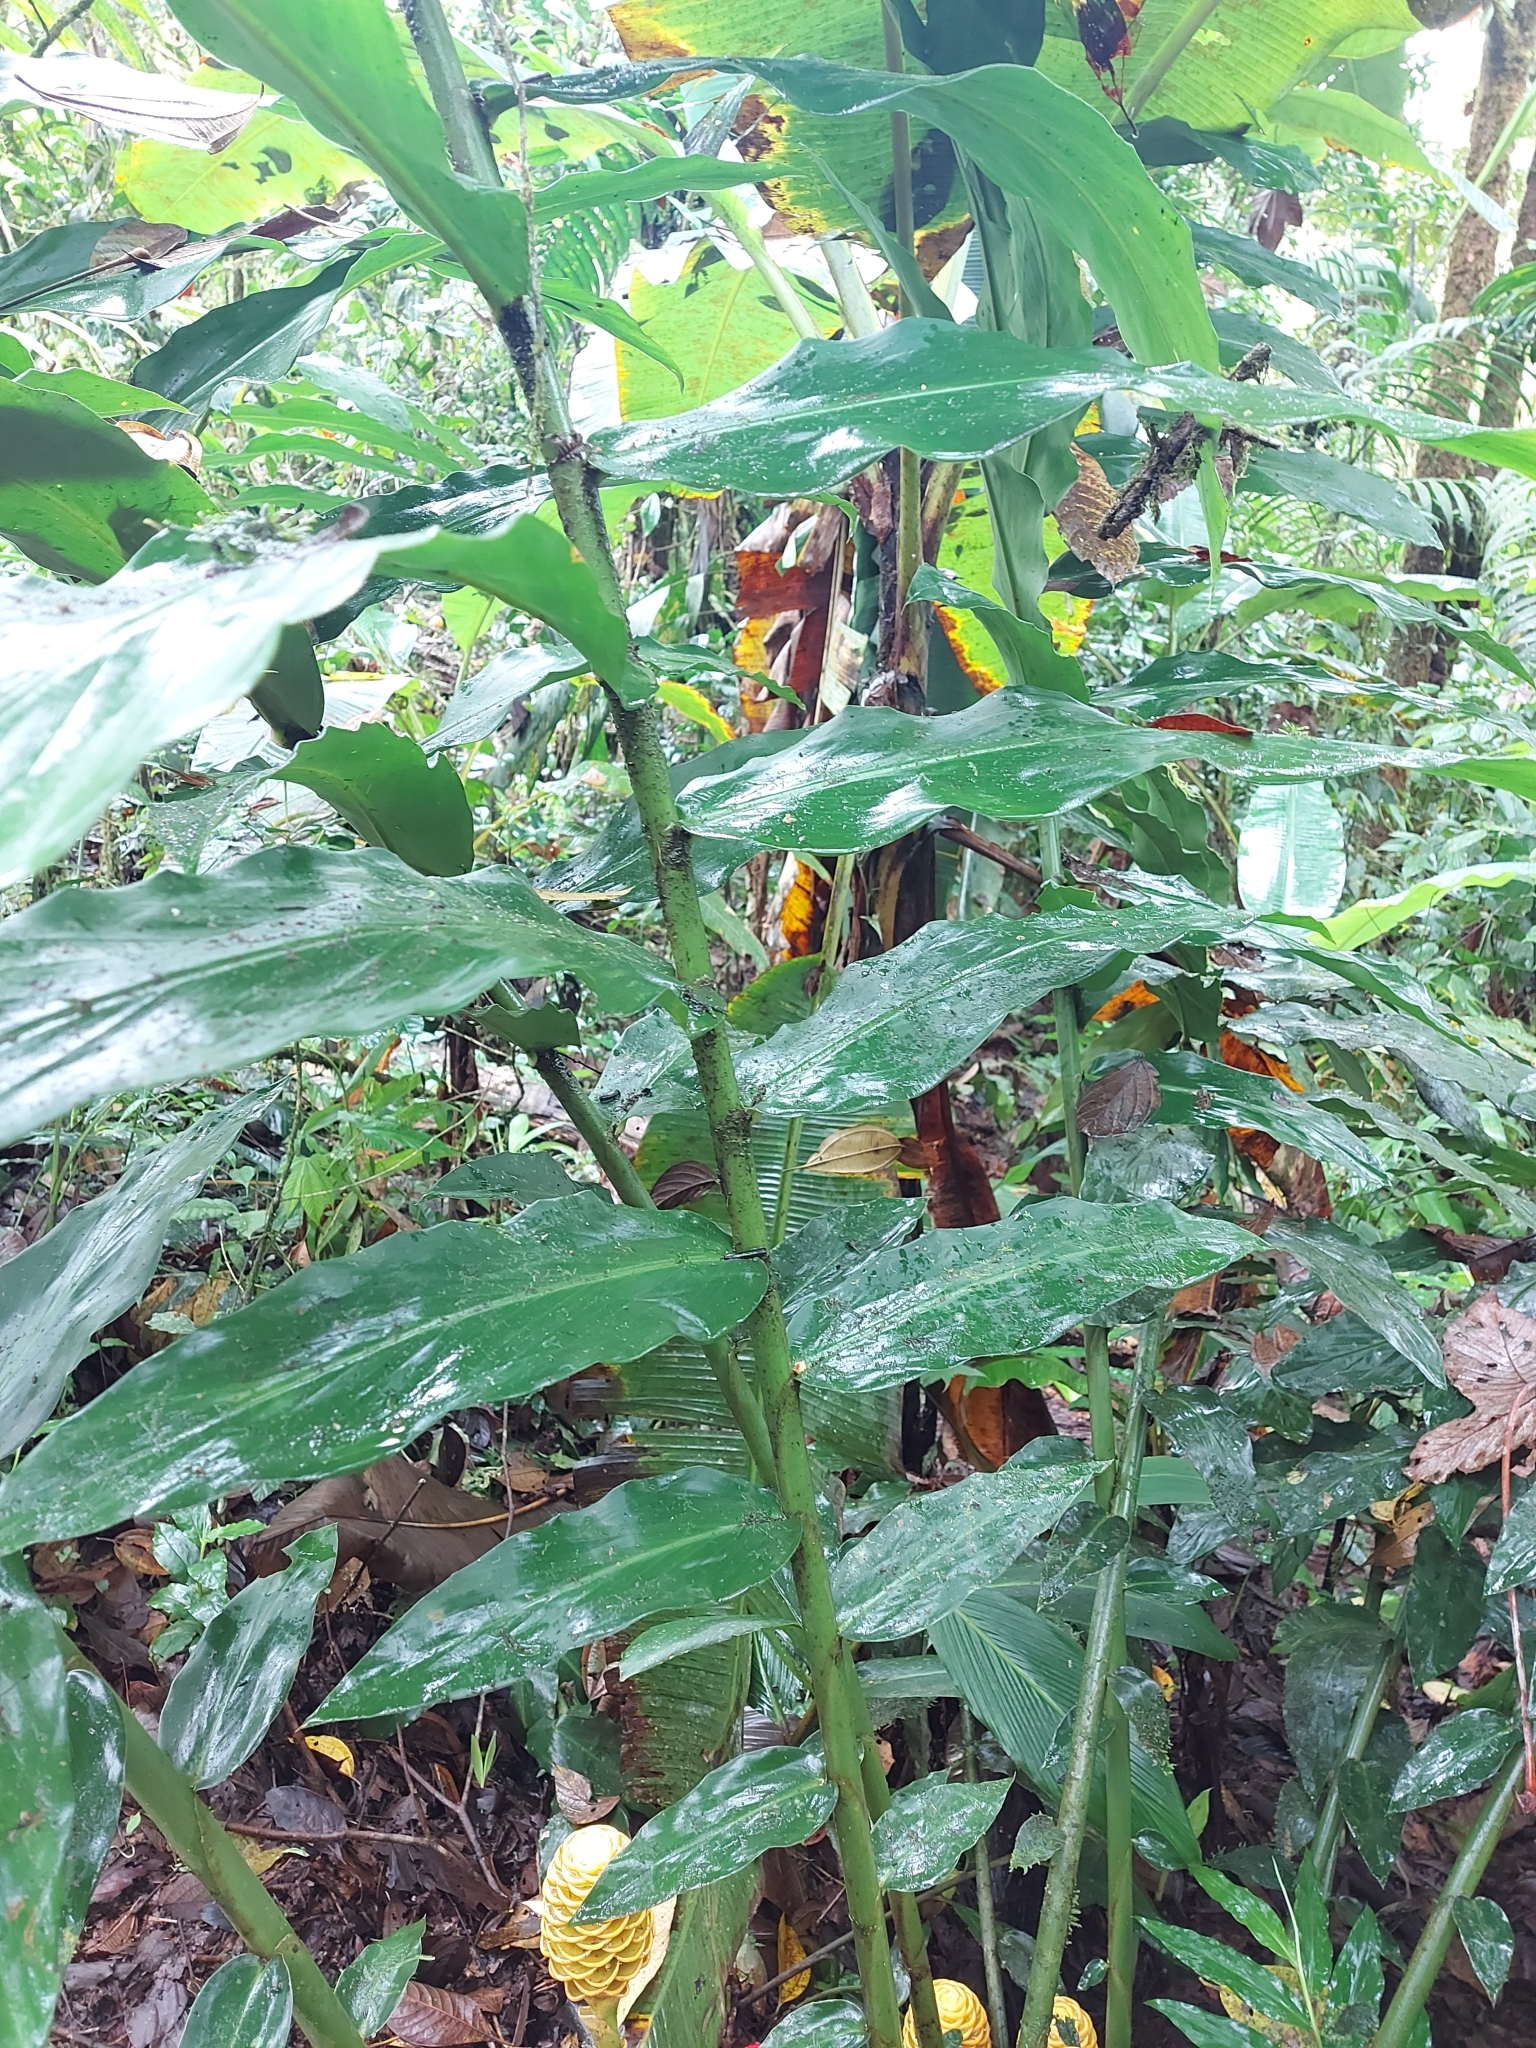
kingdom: Plantae
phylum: Tracheophyta
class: Liliopsida
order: Zingiberales
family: Zingiberaceae
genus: Zingiber
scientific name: Zingiber spectabile
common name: Beehive ginger
